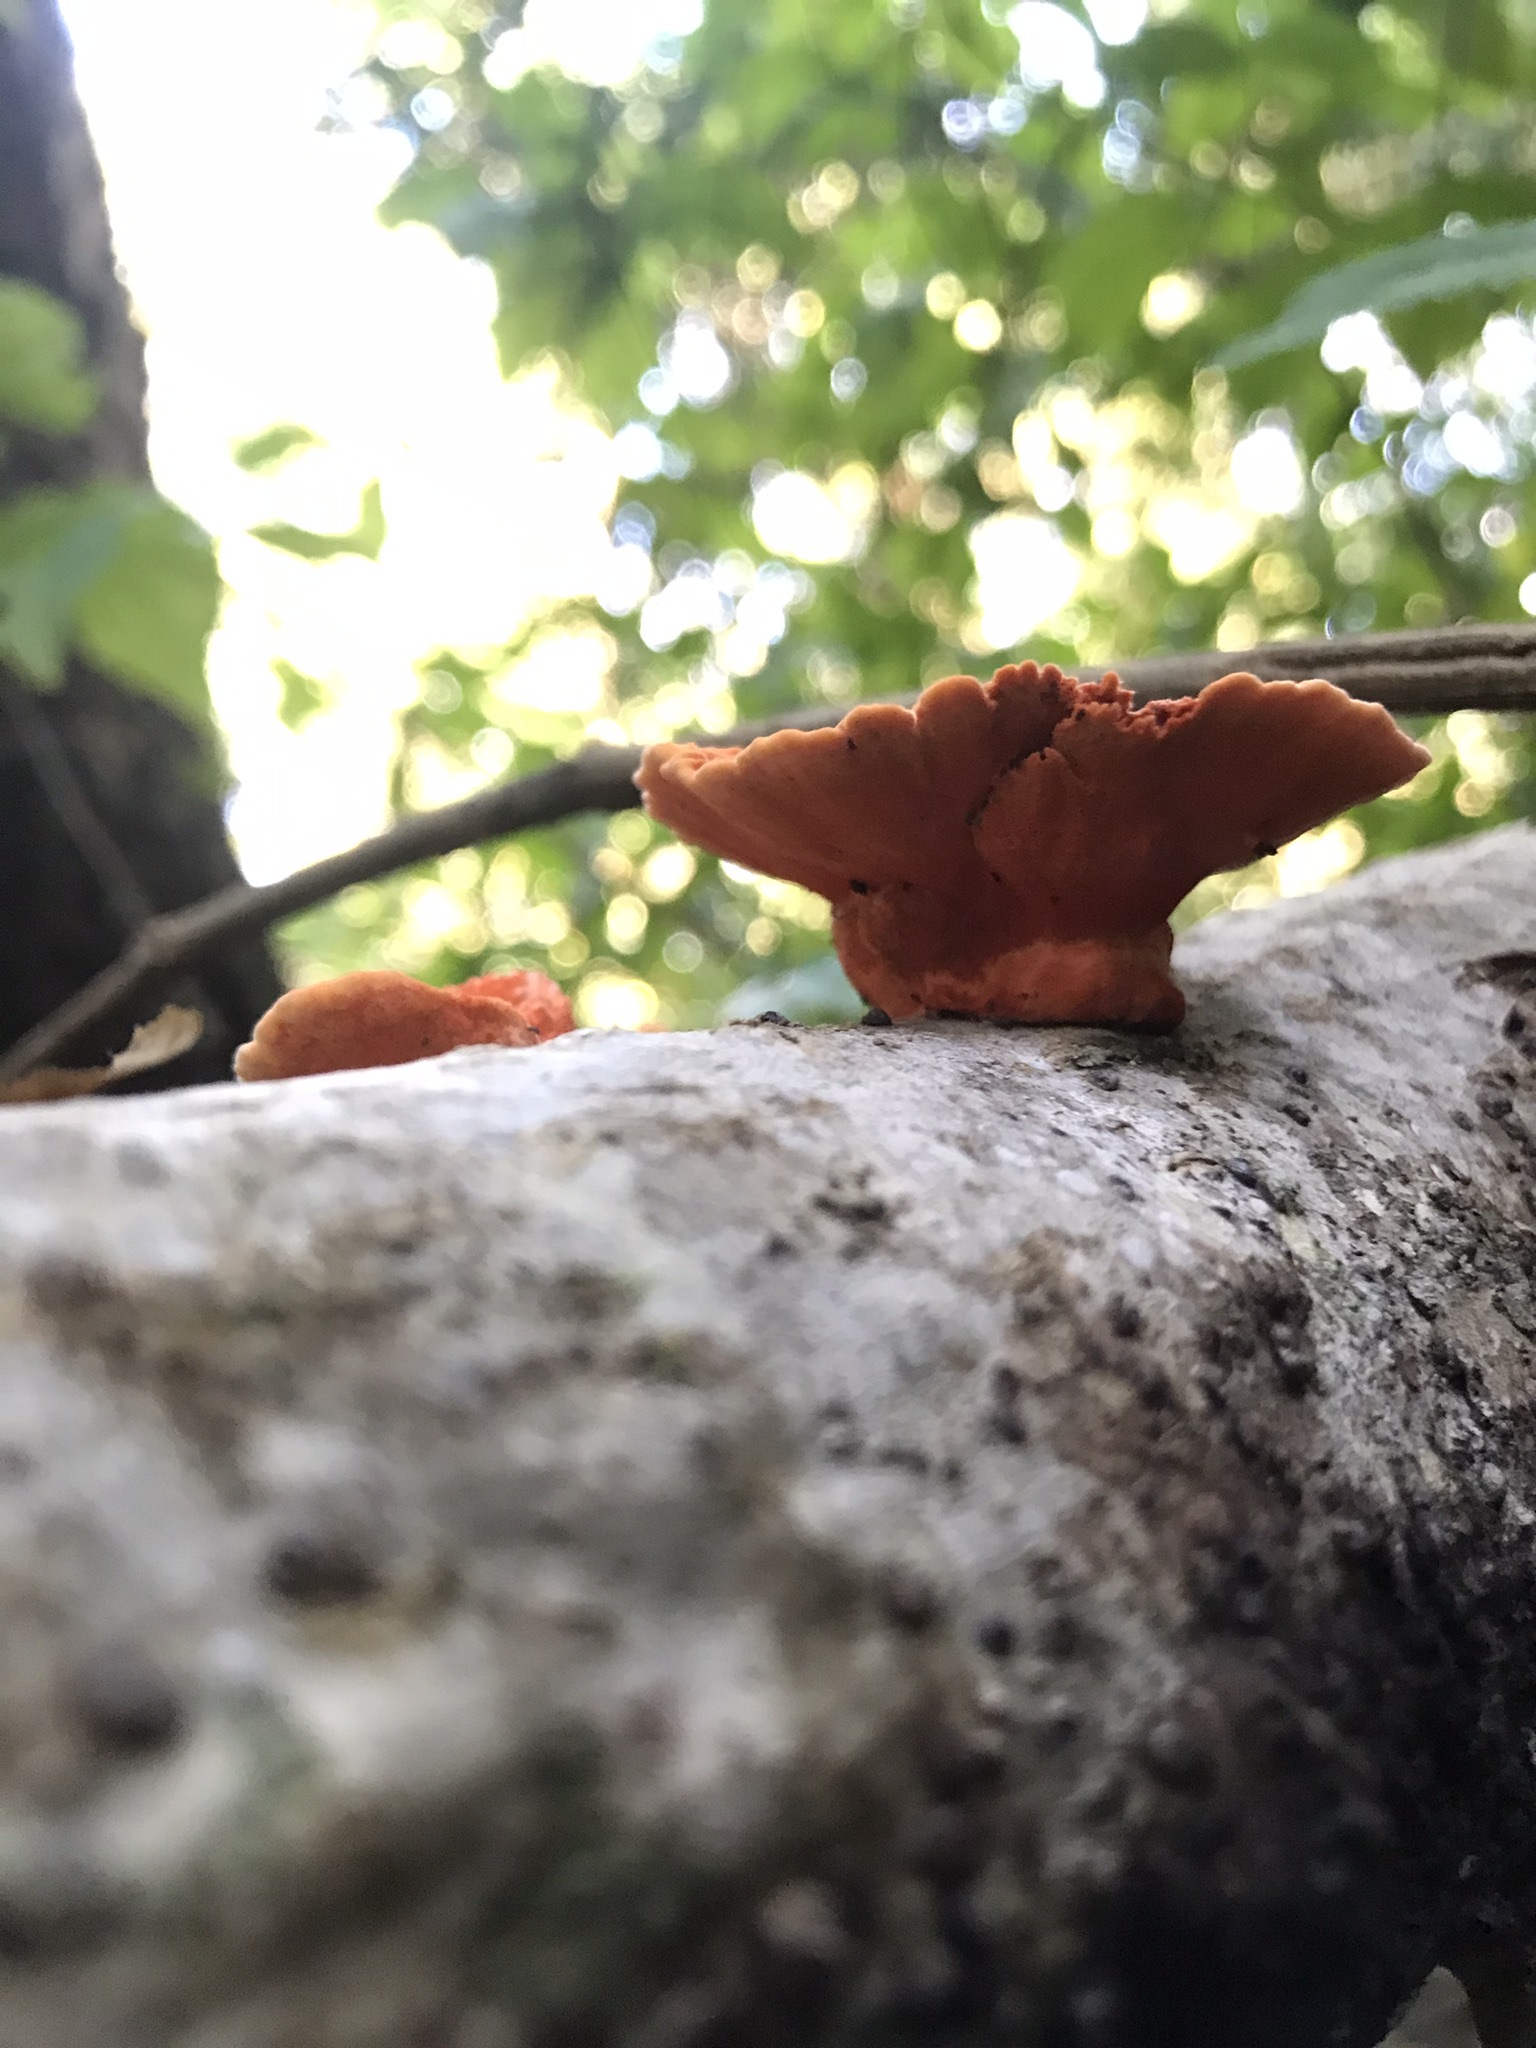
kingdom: Fungi
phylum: Basidiomycota
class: Agaricomycetes
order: Polyporales
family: Polyporaceae
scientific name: Polyporaceae
